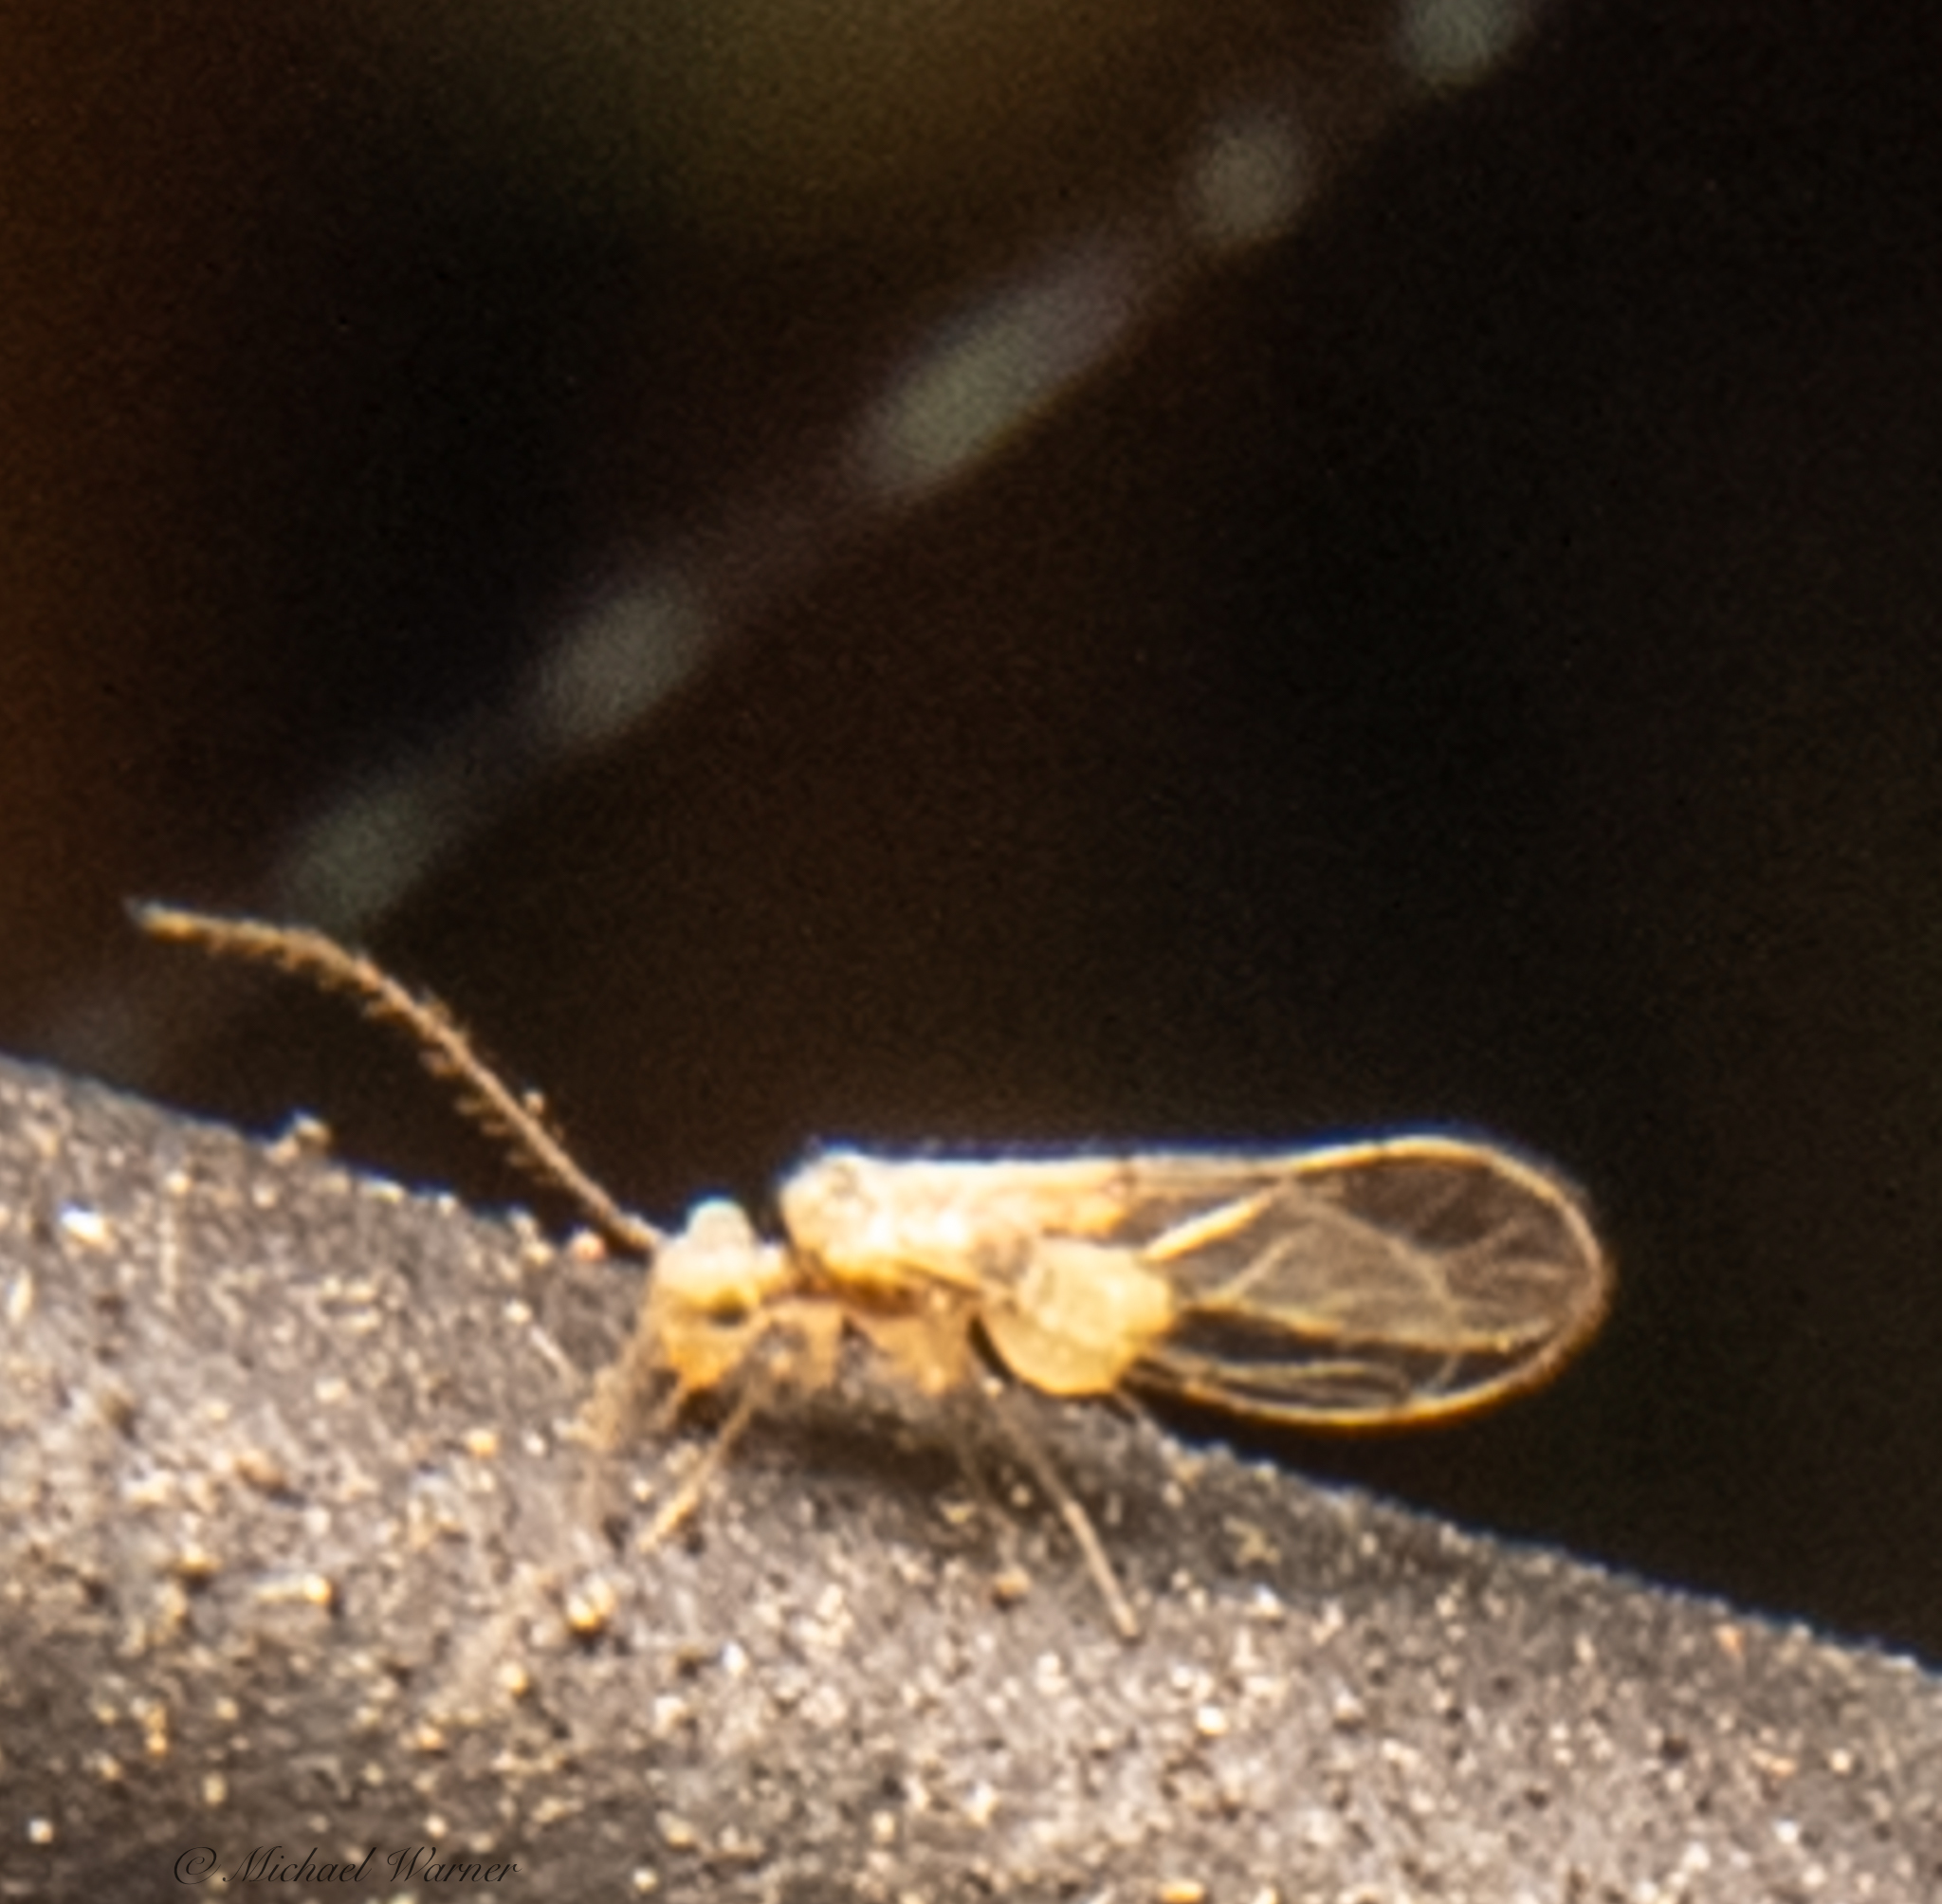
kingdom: Animalia
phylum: Arthropoda
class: Insecta
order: Psocodea
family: Trichopsocidae
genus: Trichopsocus
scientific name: Trichopsocus clarus
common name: Lash-faced psocid
